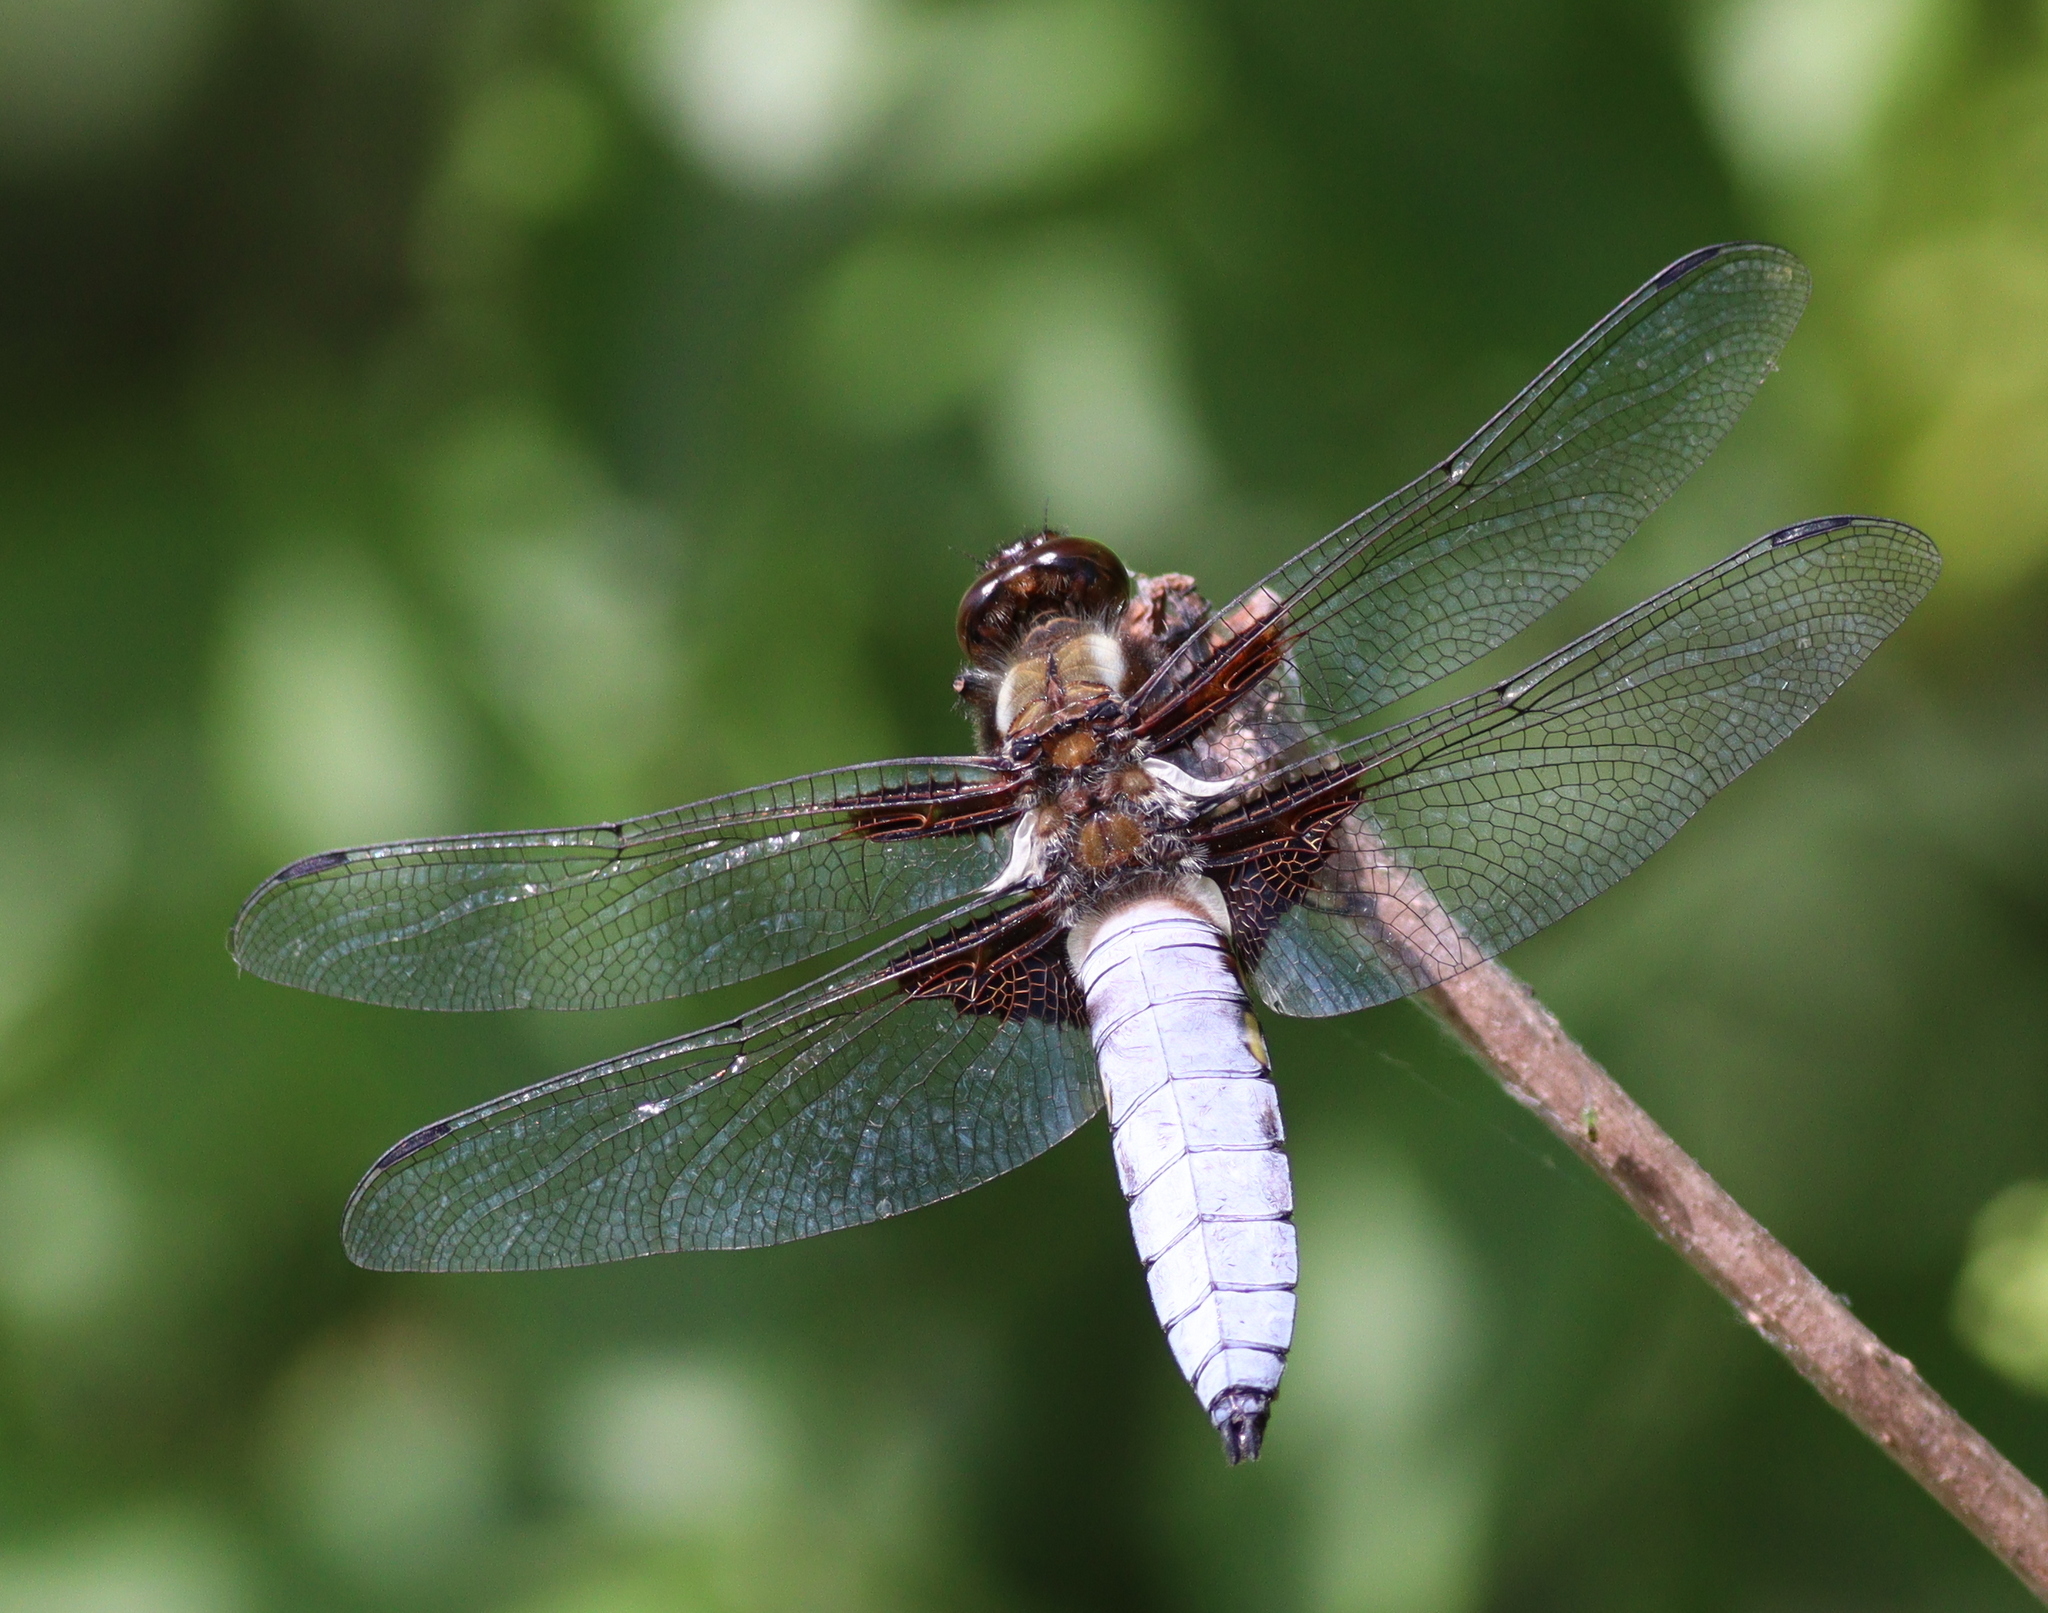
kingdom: Animalia
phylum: Arthropoda
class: Insecta
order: Odonata
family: Libellulidae
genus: Libellula
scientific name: Libellula depressa
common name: Broad-bodied chaser
